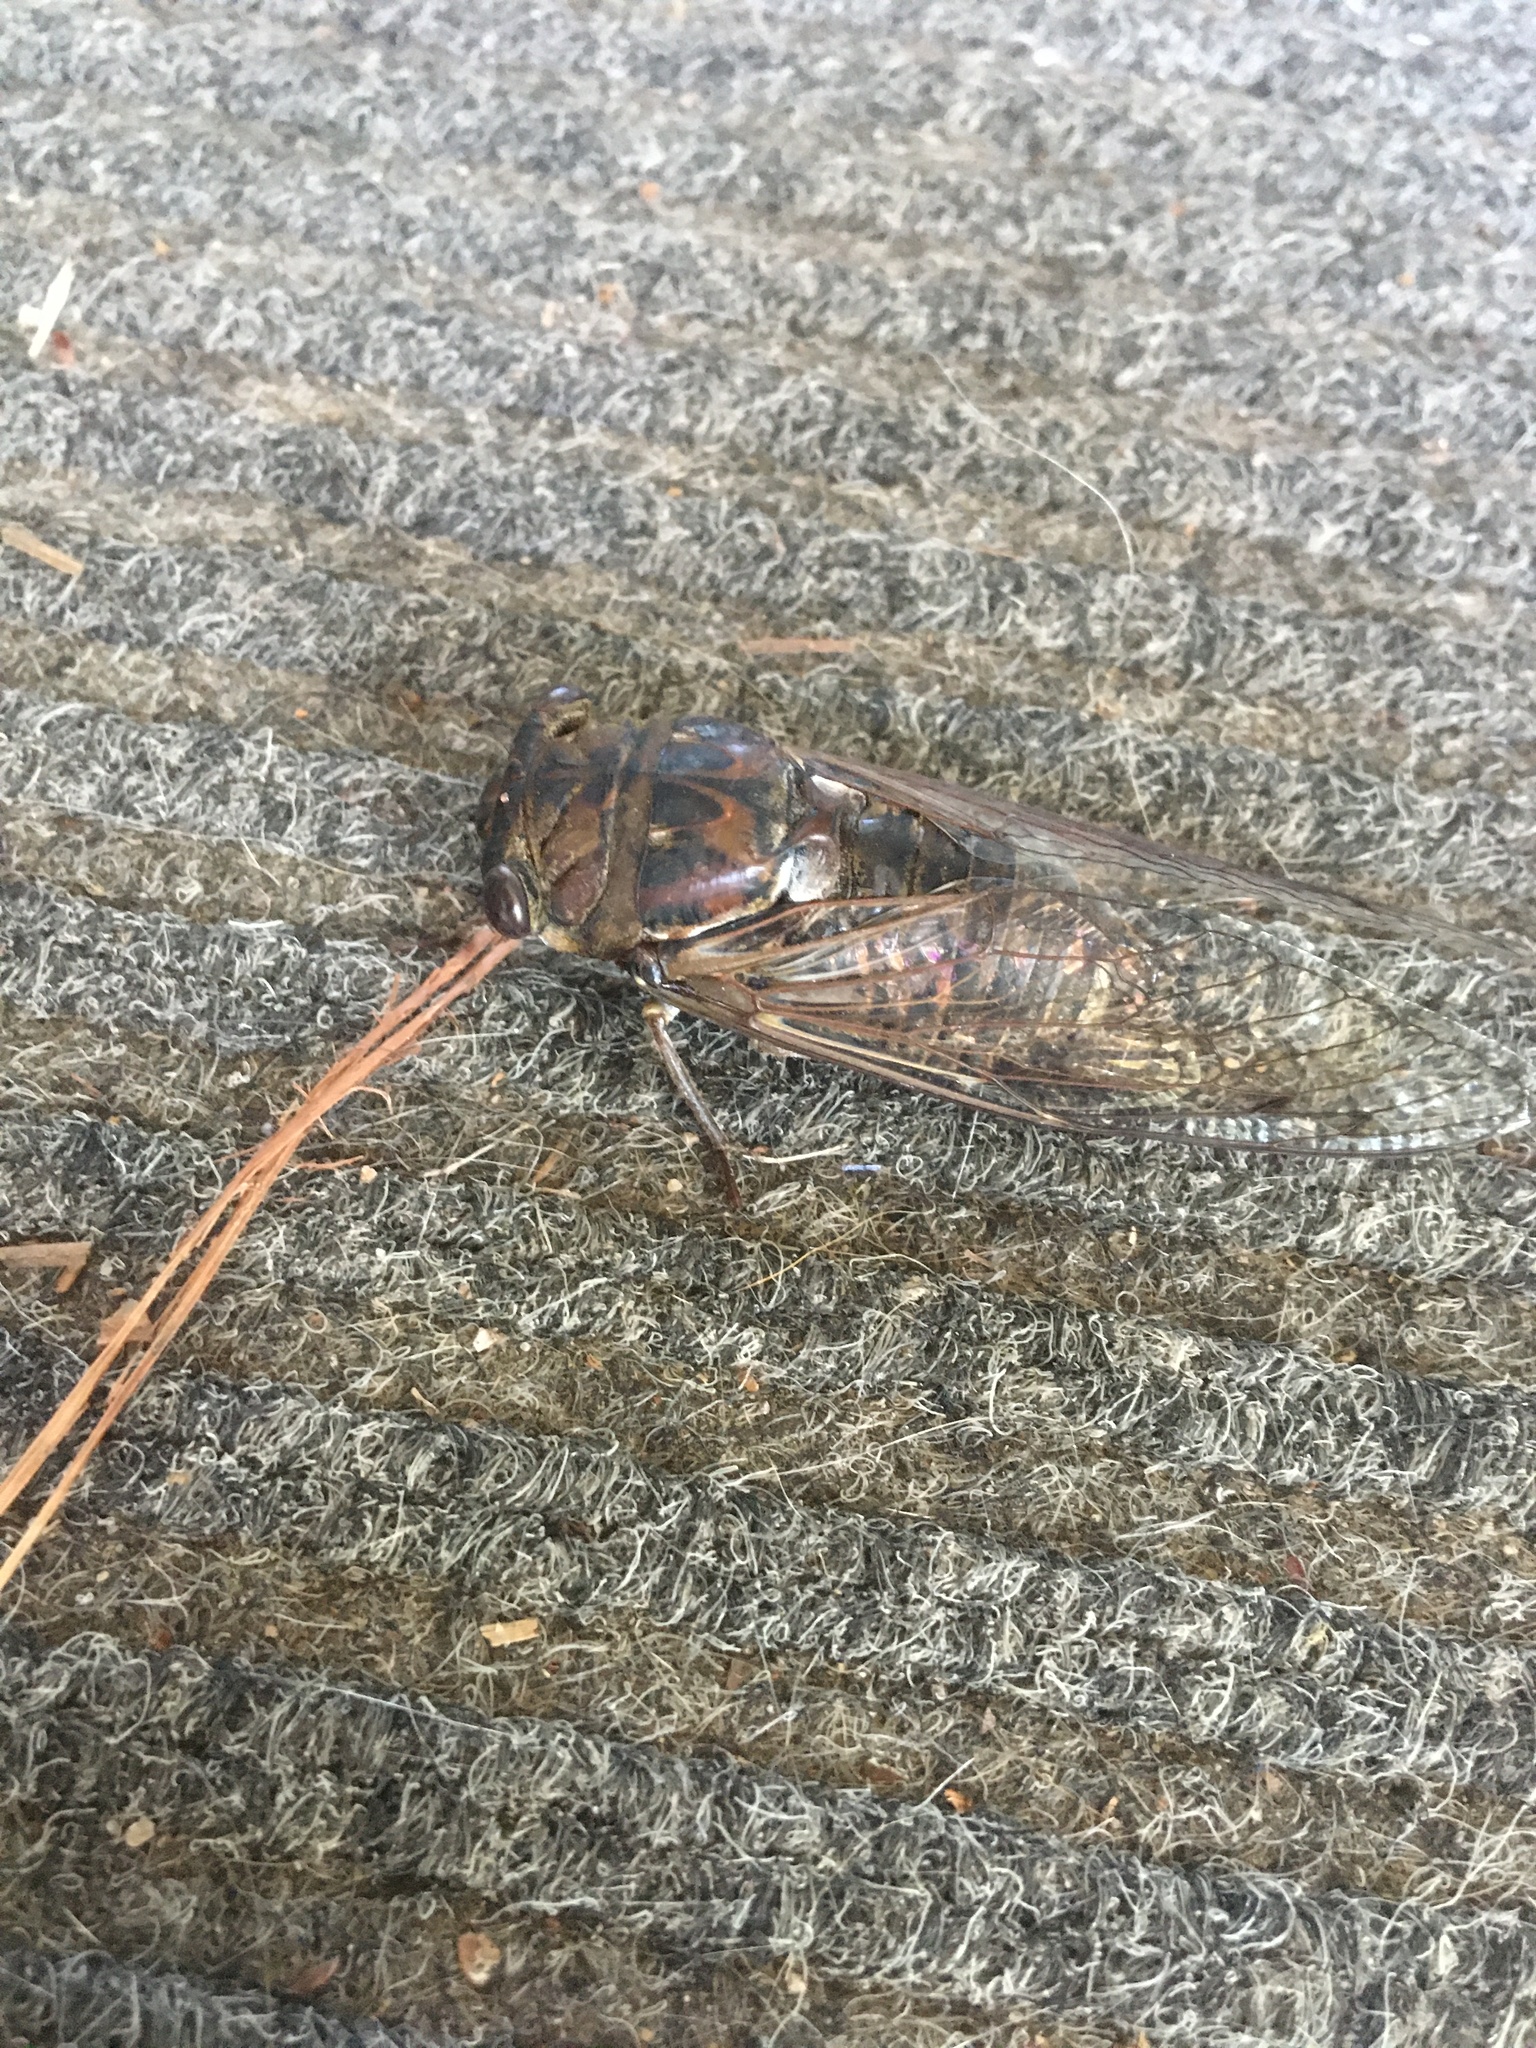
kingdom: Animalia
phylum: Arthropoda
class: Insecta
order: Hemiptera
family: Cicadidae
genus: Megatibicen
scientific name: Megatibicen resonans
